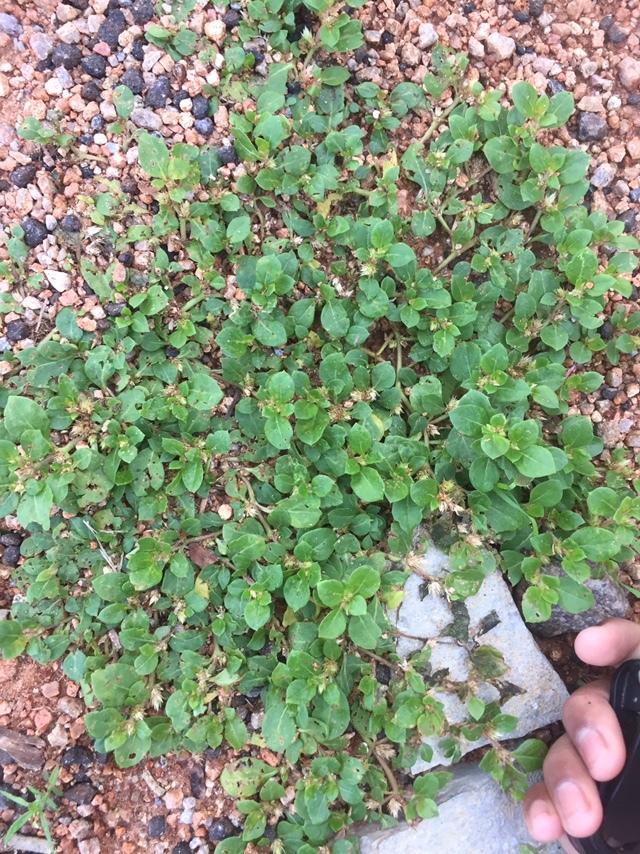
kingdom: Plantae
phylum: Tracheophyta
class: Magnoliopsida
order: Caryophyllales
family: Amaranthaceae
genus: Alternanthera
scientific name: Alternanthera pungens
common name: Khakiweed
